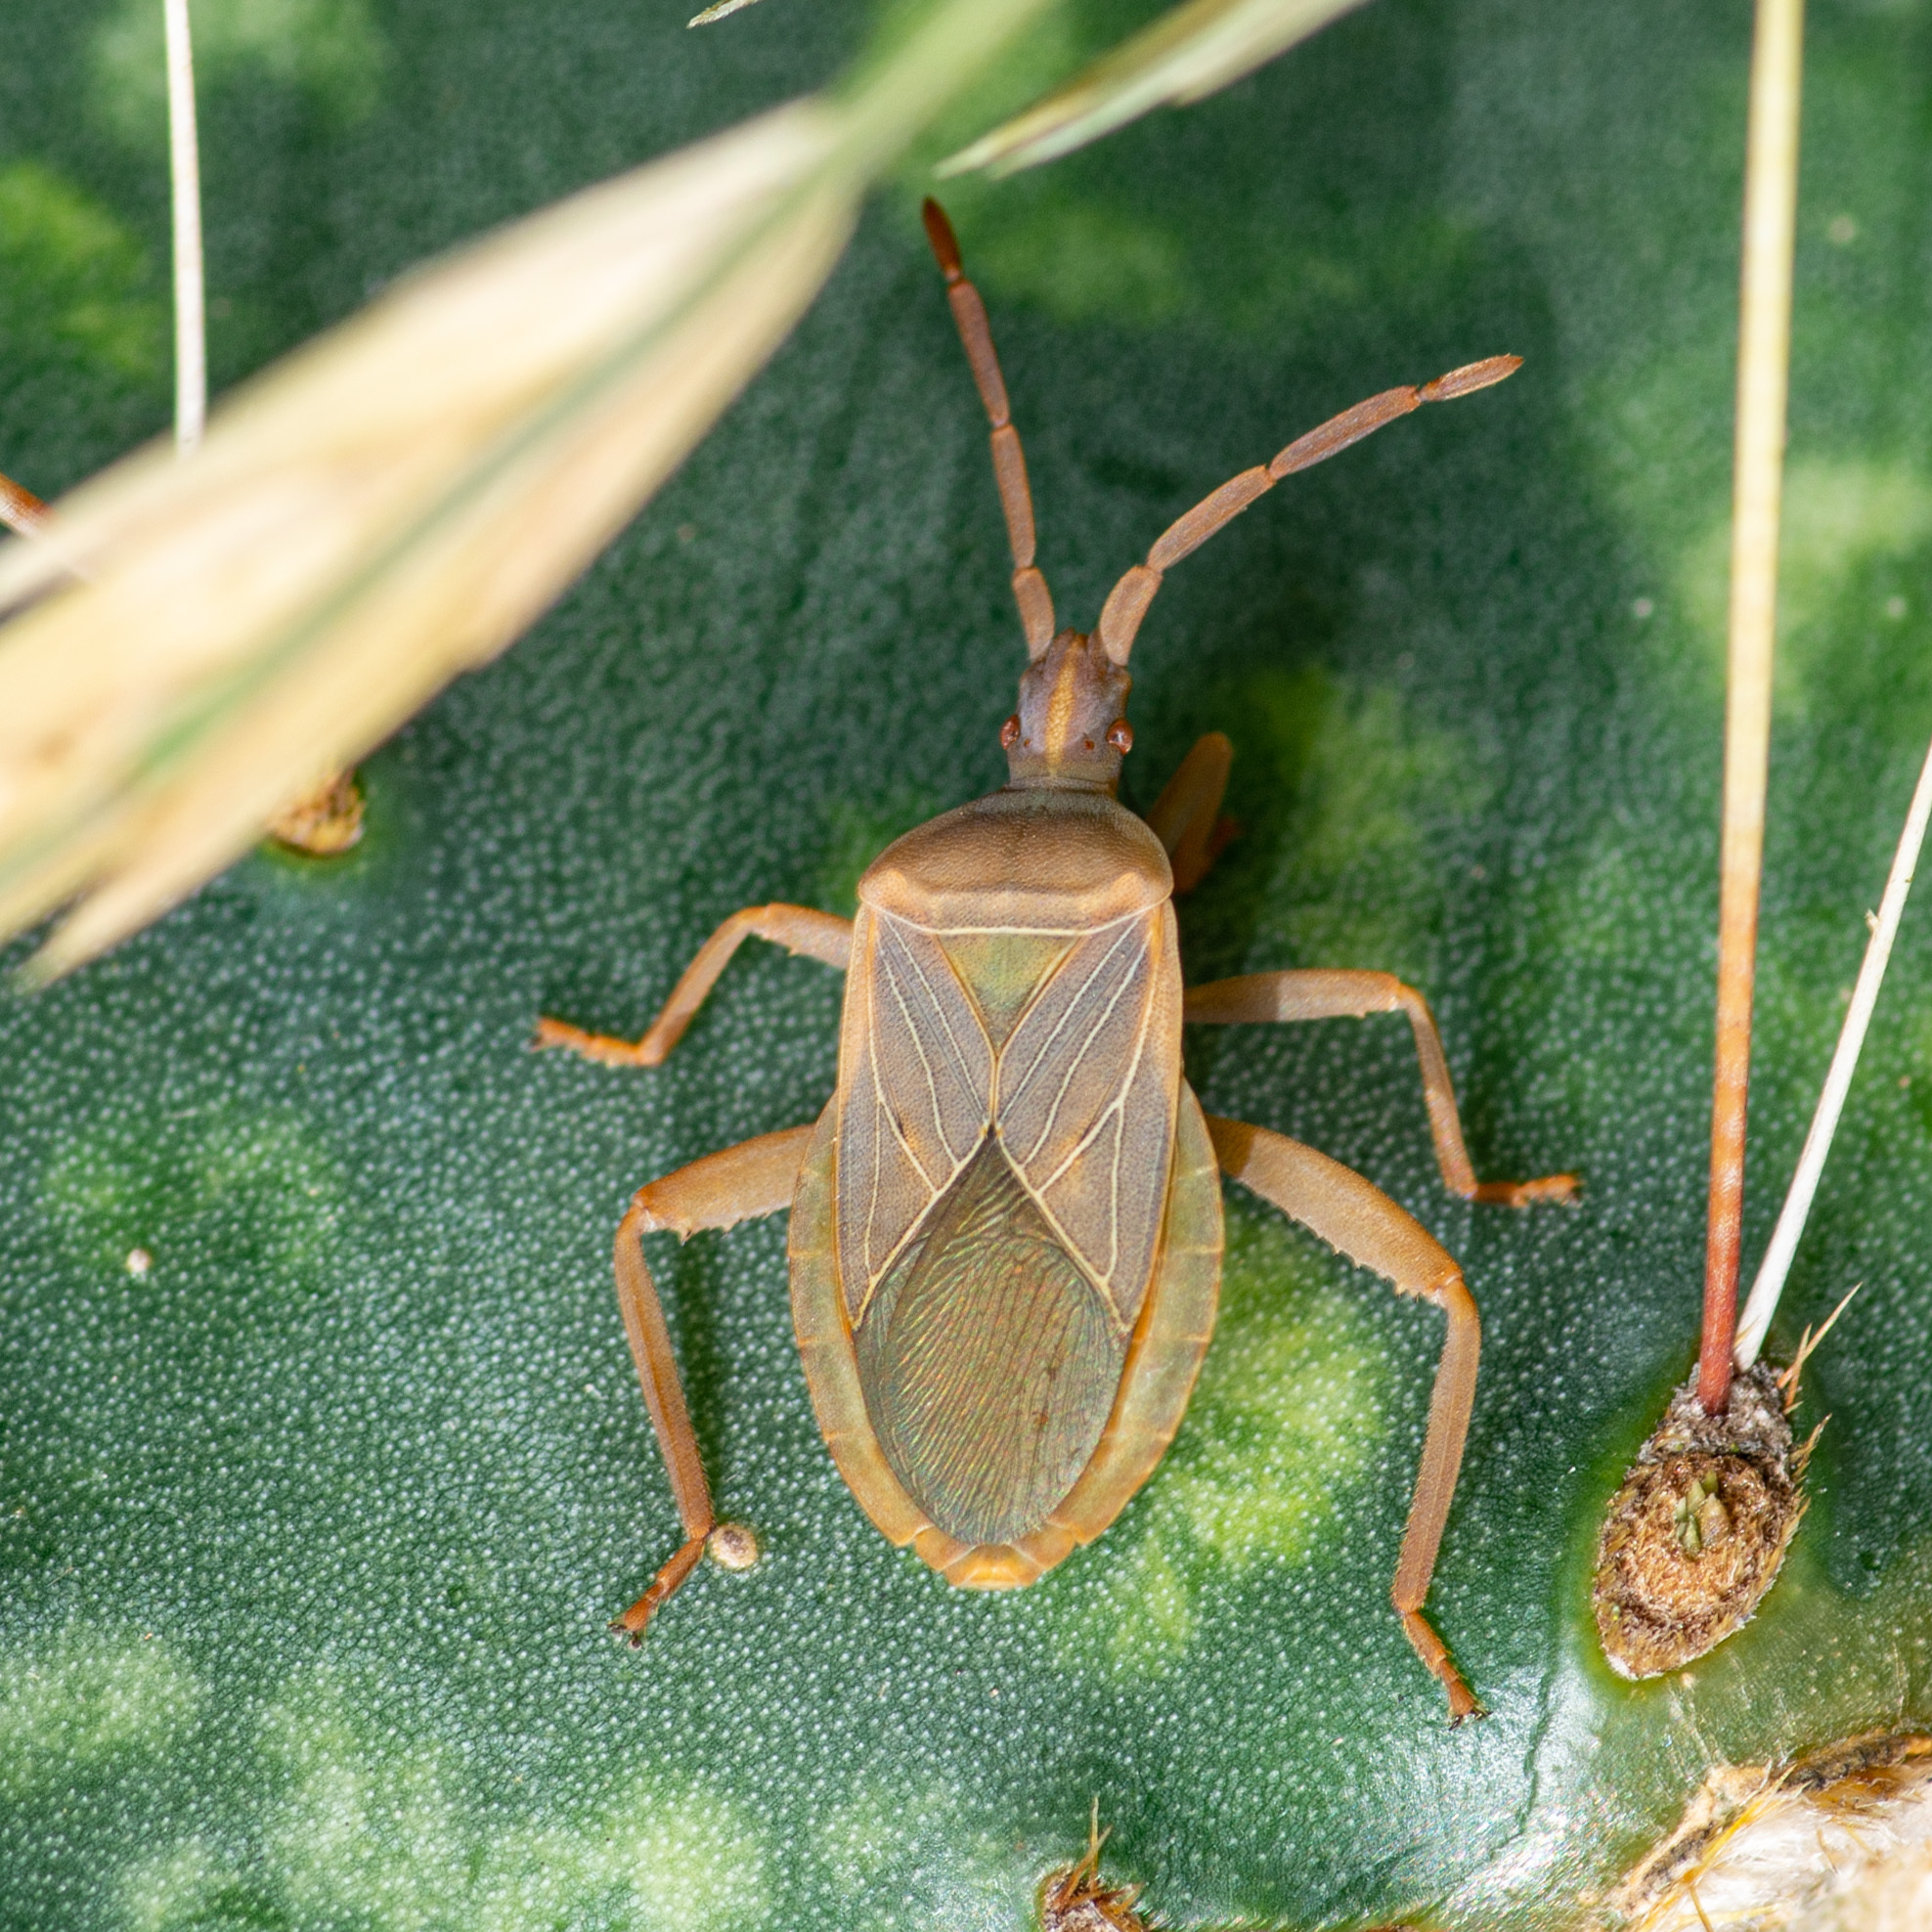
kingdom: Animalia
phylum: Arthropoda
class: Insecta
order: Hemiptera
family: Coreidae
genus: Chelinidea
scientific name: Chelinidea vittiger
